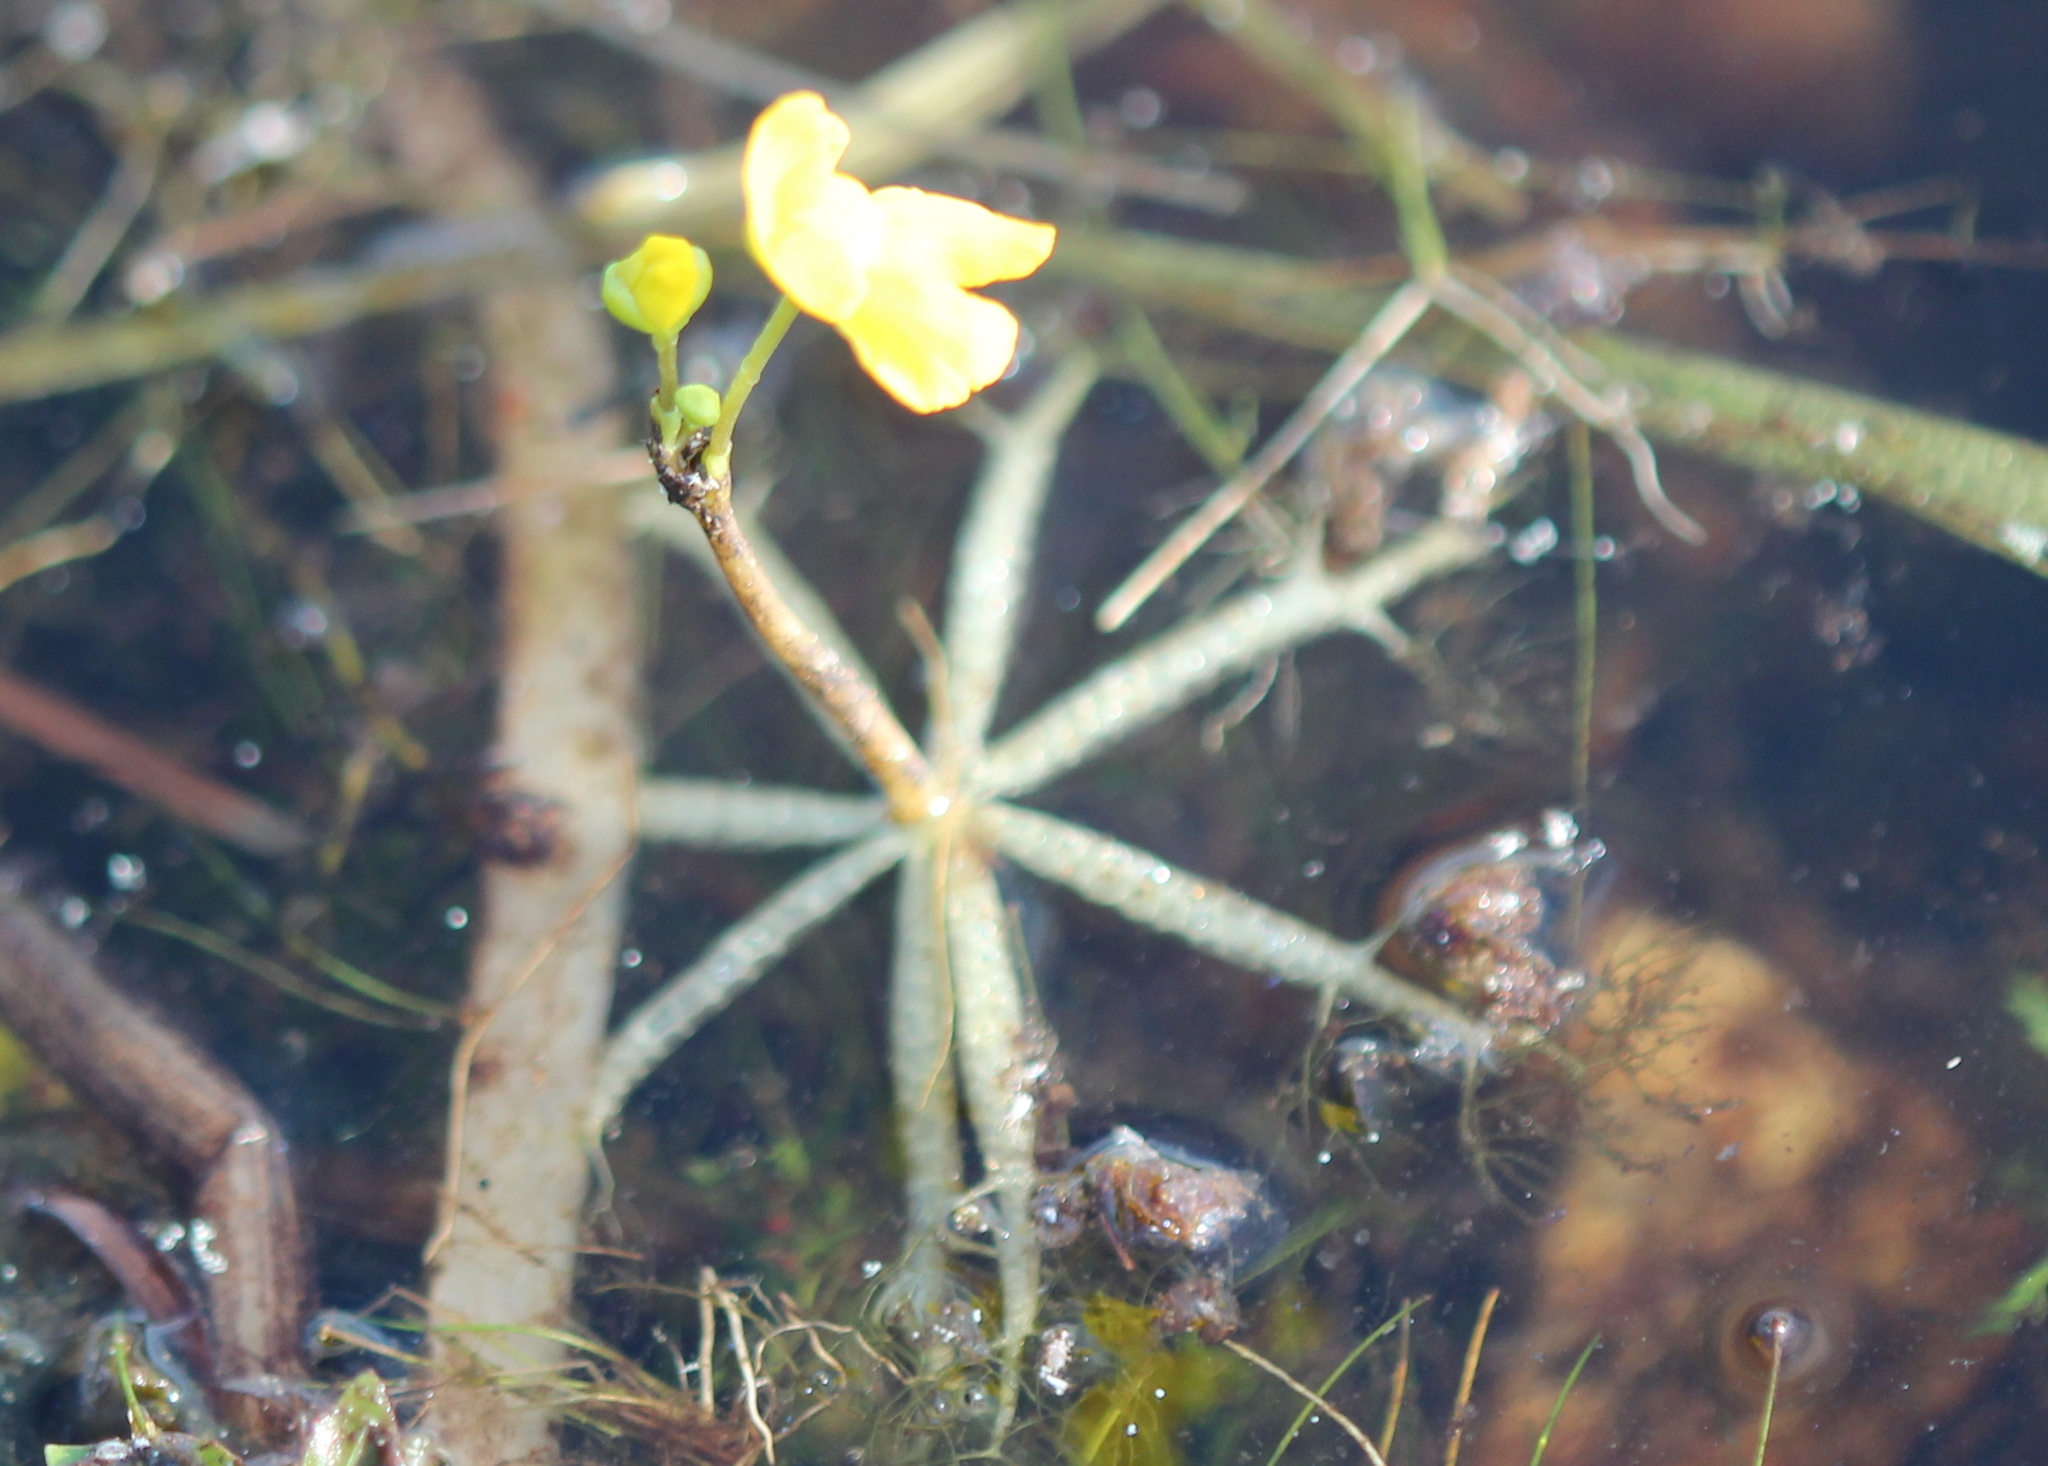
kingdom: Plantae
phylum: Tracheophyta
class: Magnoliopsida
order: Lamiales
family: Lentibulariaceae
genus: Utricularia
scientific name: Utricularia radiata
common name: Floating bladderwort
